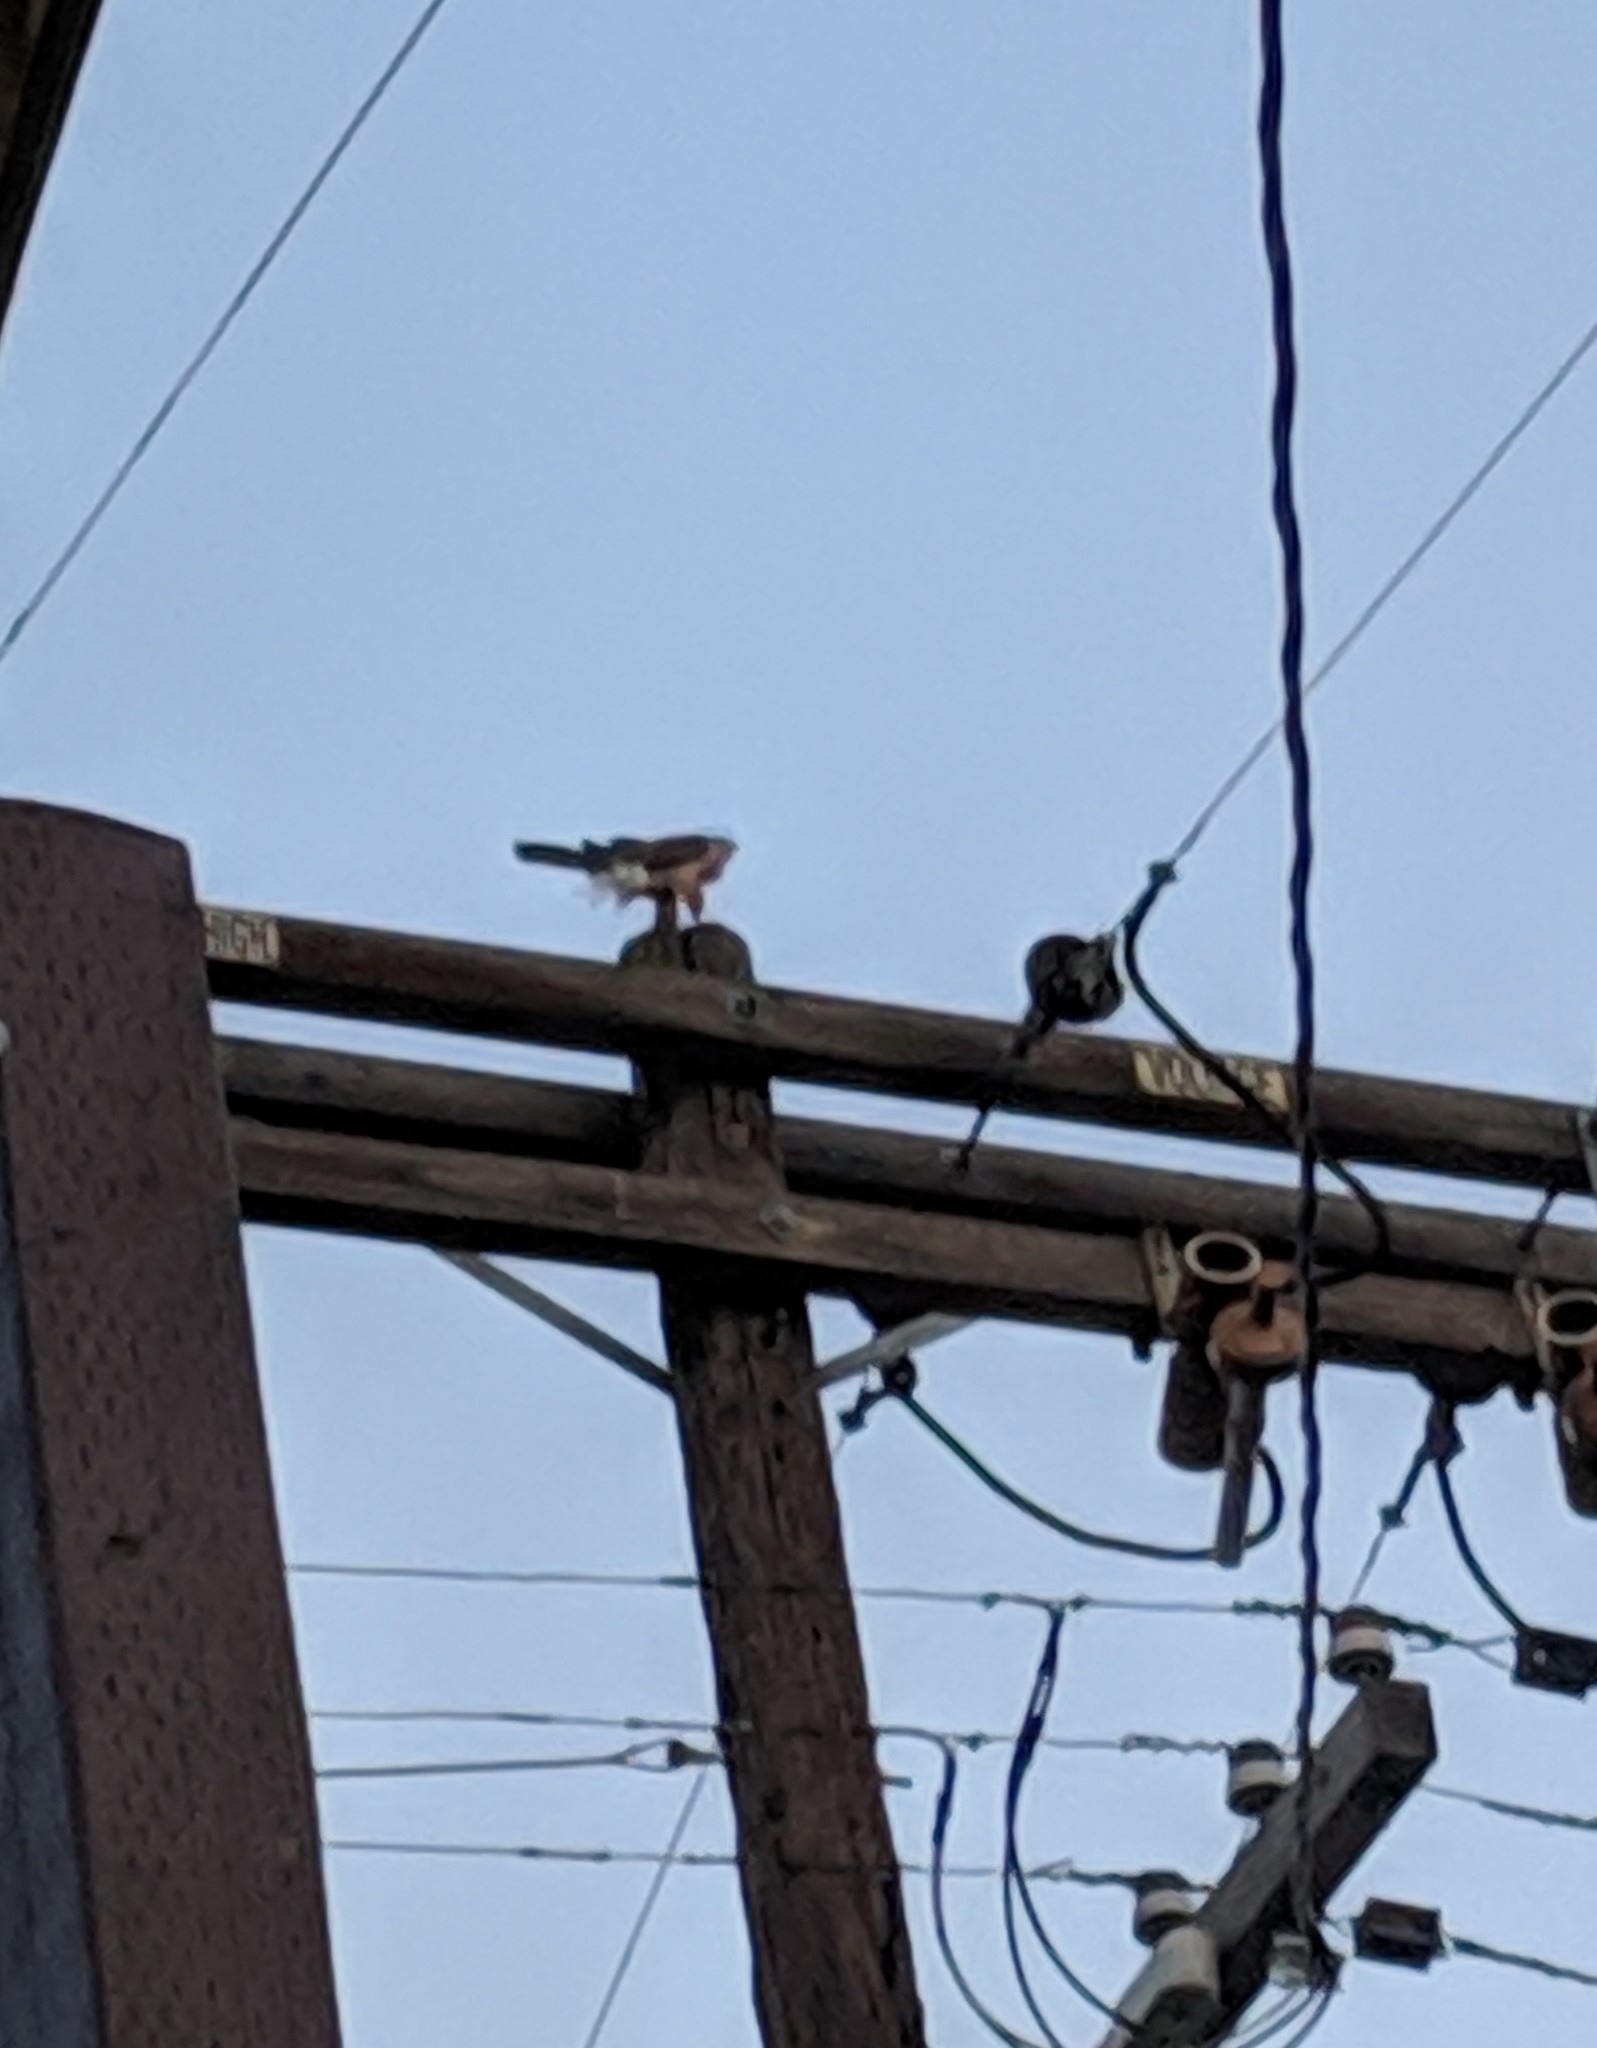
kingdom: Animalia
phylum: Chordata
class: Aves
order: Accipitriformes
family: Accipitridae
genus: Accipiter
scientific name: Accipiter cooperii
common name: Cooper's hawk
